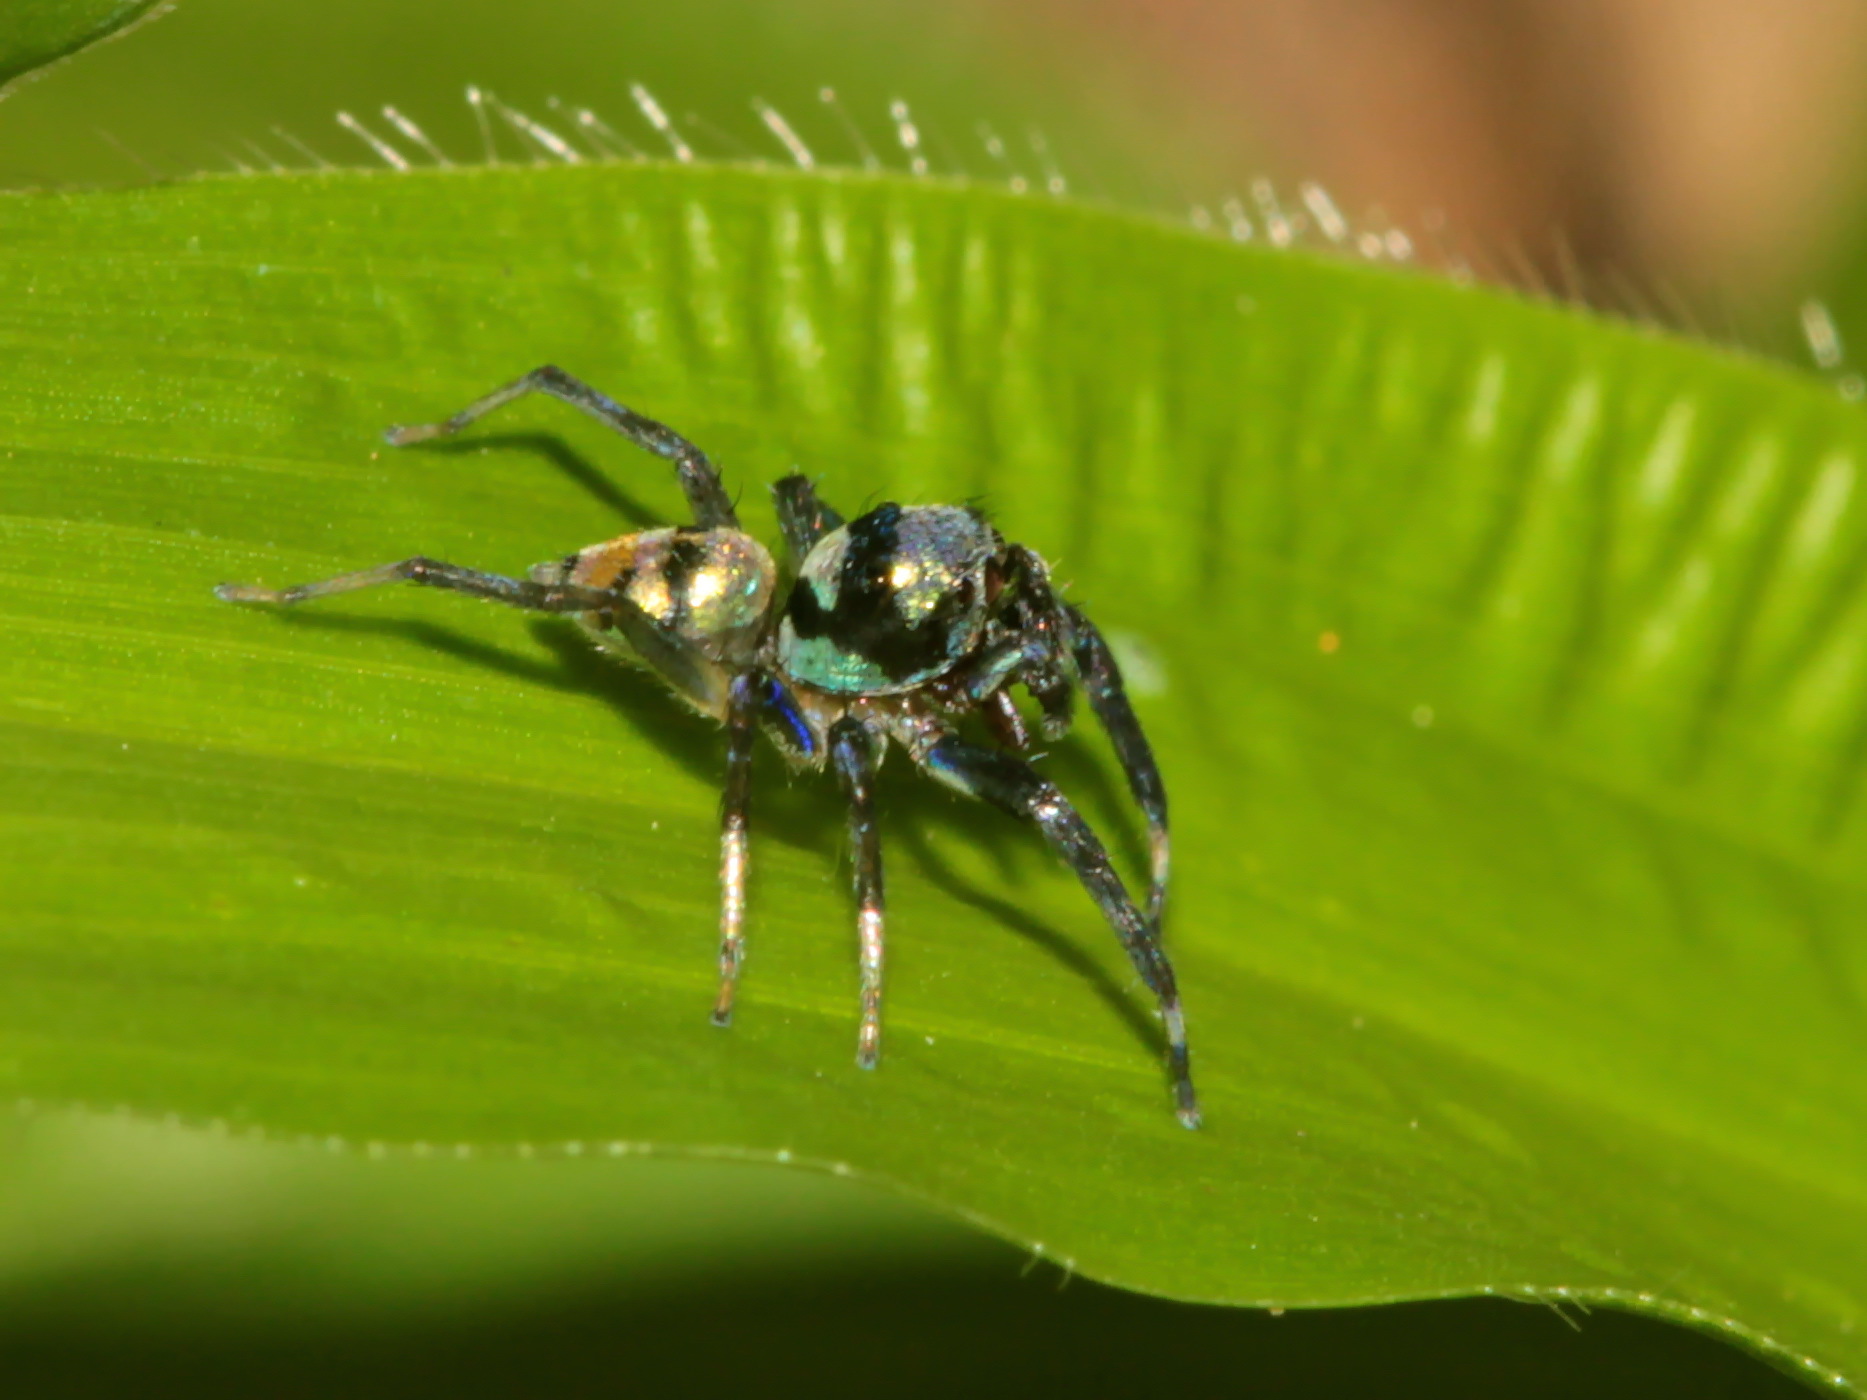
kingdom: Animalia
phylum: Arthropoda
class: Arachnida
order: Araneae
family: Salticidae
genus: Phintella
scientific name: Phintella vittata
